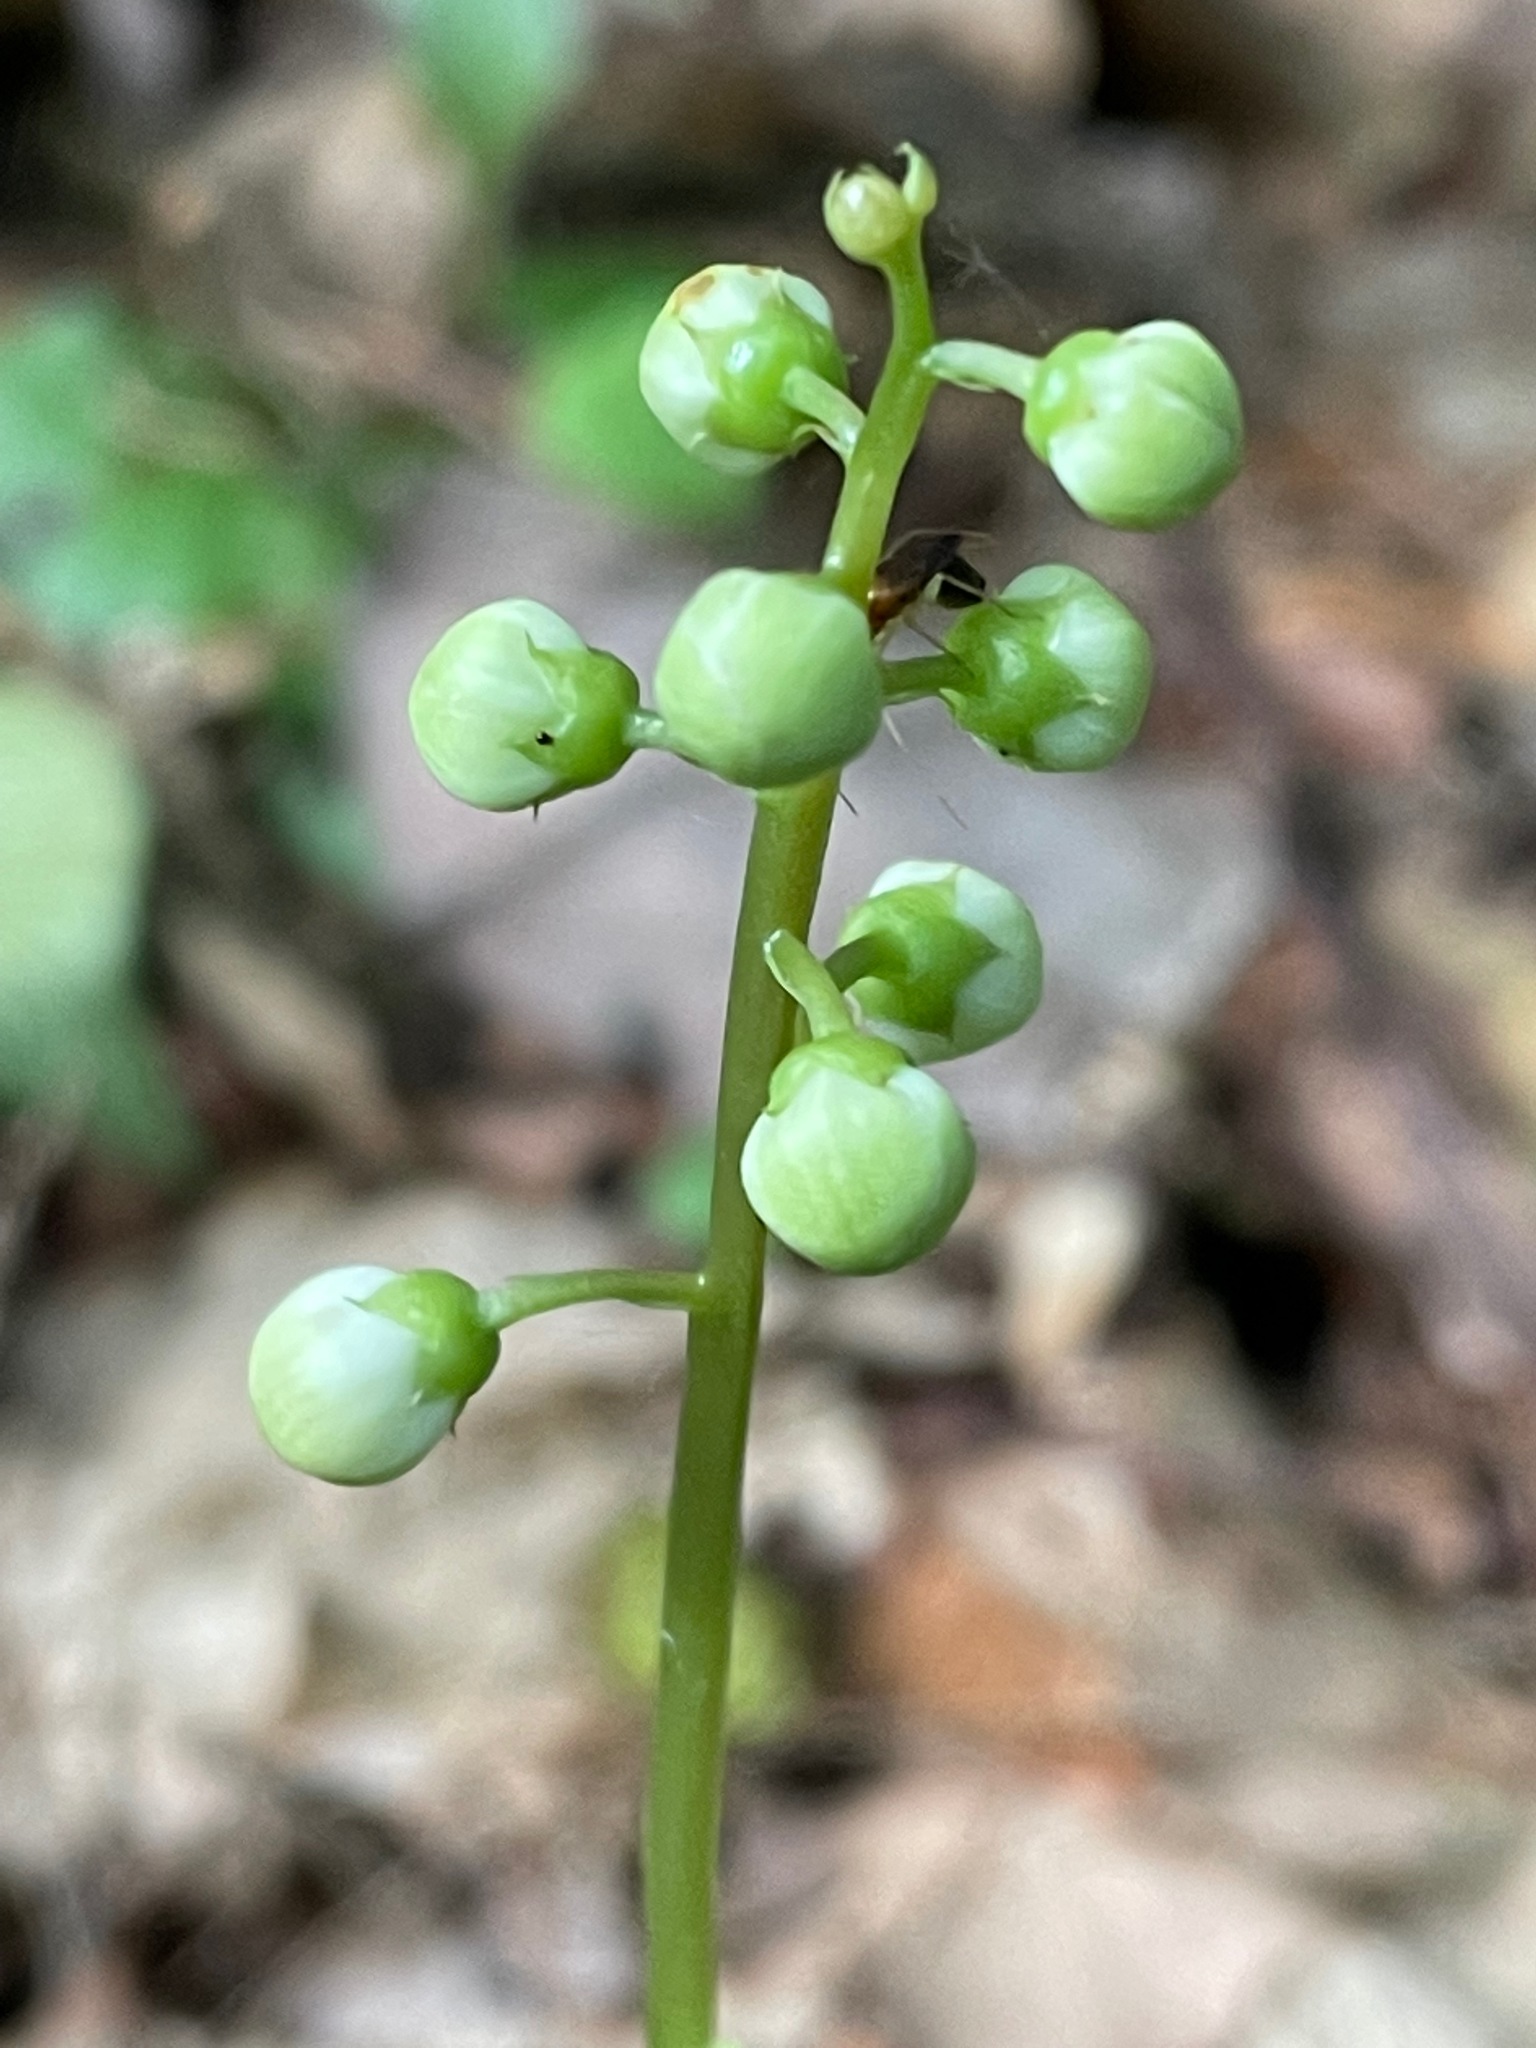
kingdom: Plantae
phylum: Tracheophyta
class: Magnoliopsida
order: Ericales
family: Ericaceae
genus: Pyrola
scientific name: Pyrola elliptica
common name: Shinleaf
